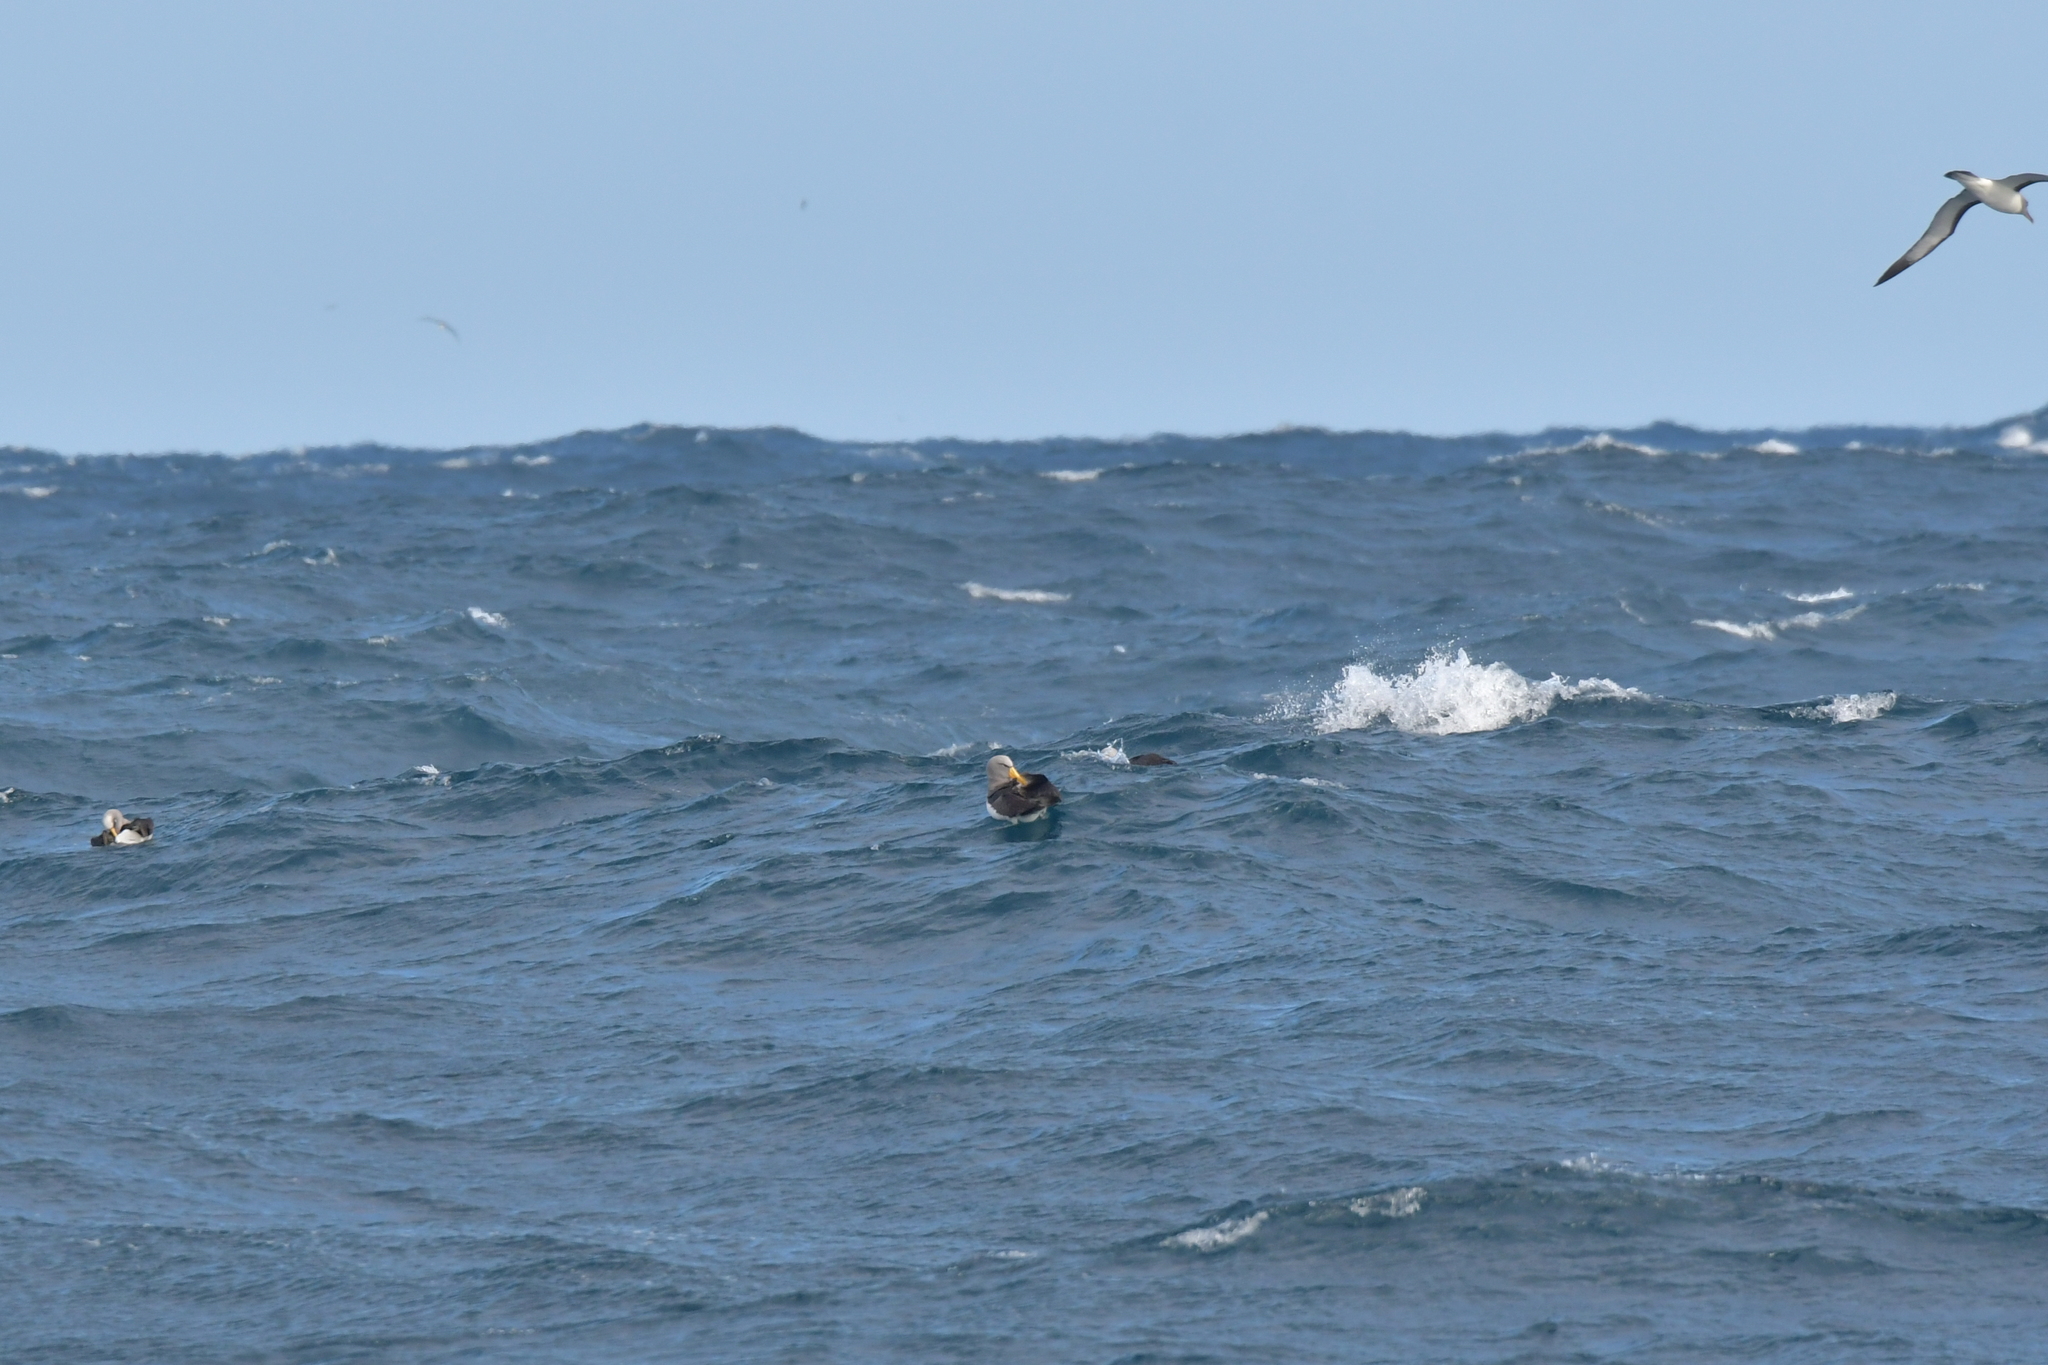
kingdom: Animalia
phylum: Chordata
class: Aves
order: Procellariiformes
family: Diomedeidae
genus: Thalassarche
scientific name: Thalassarche eremita
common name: Chatham albatross
